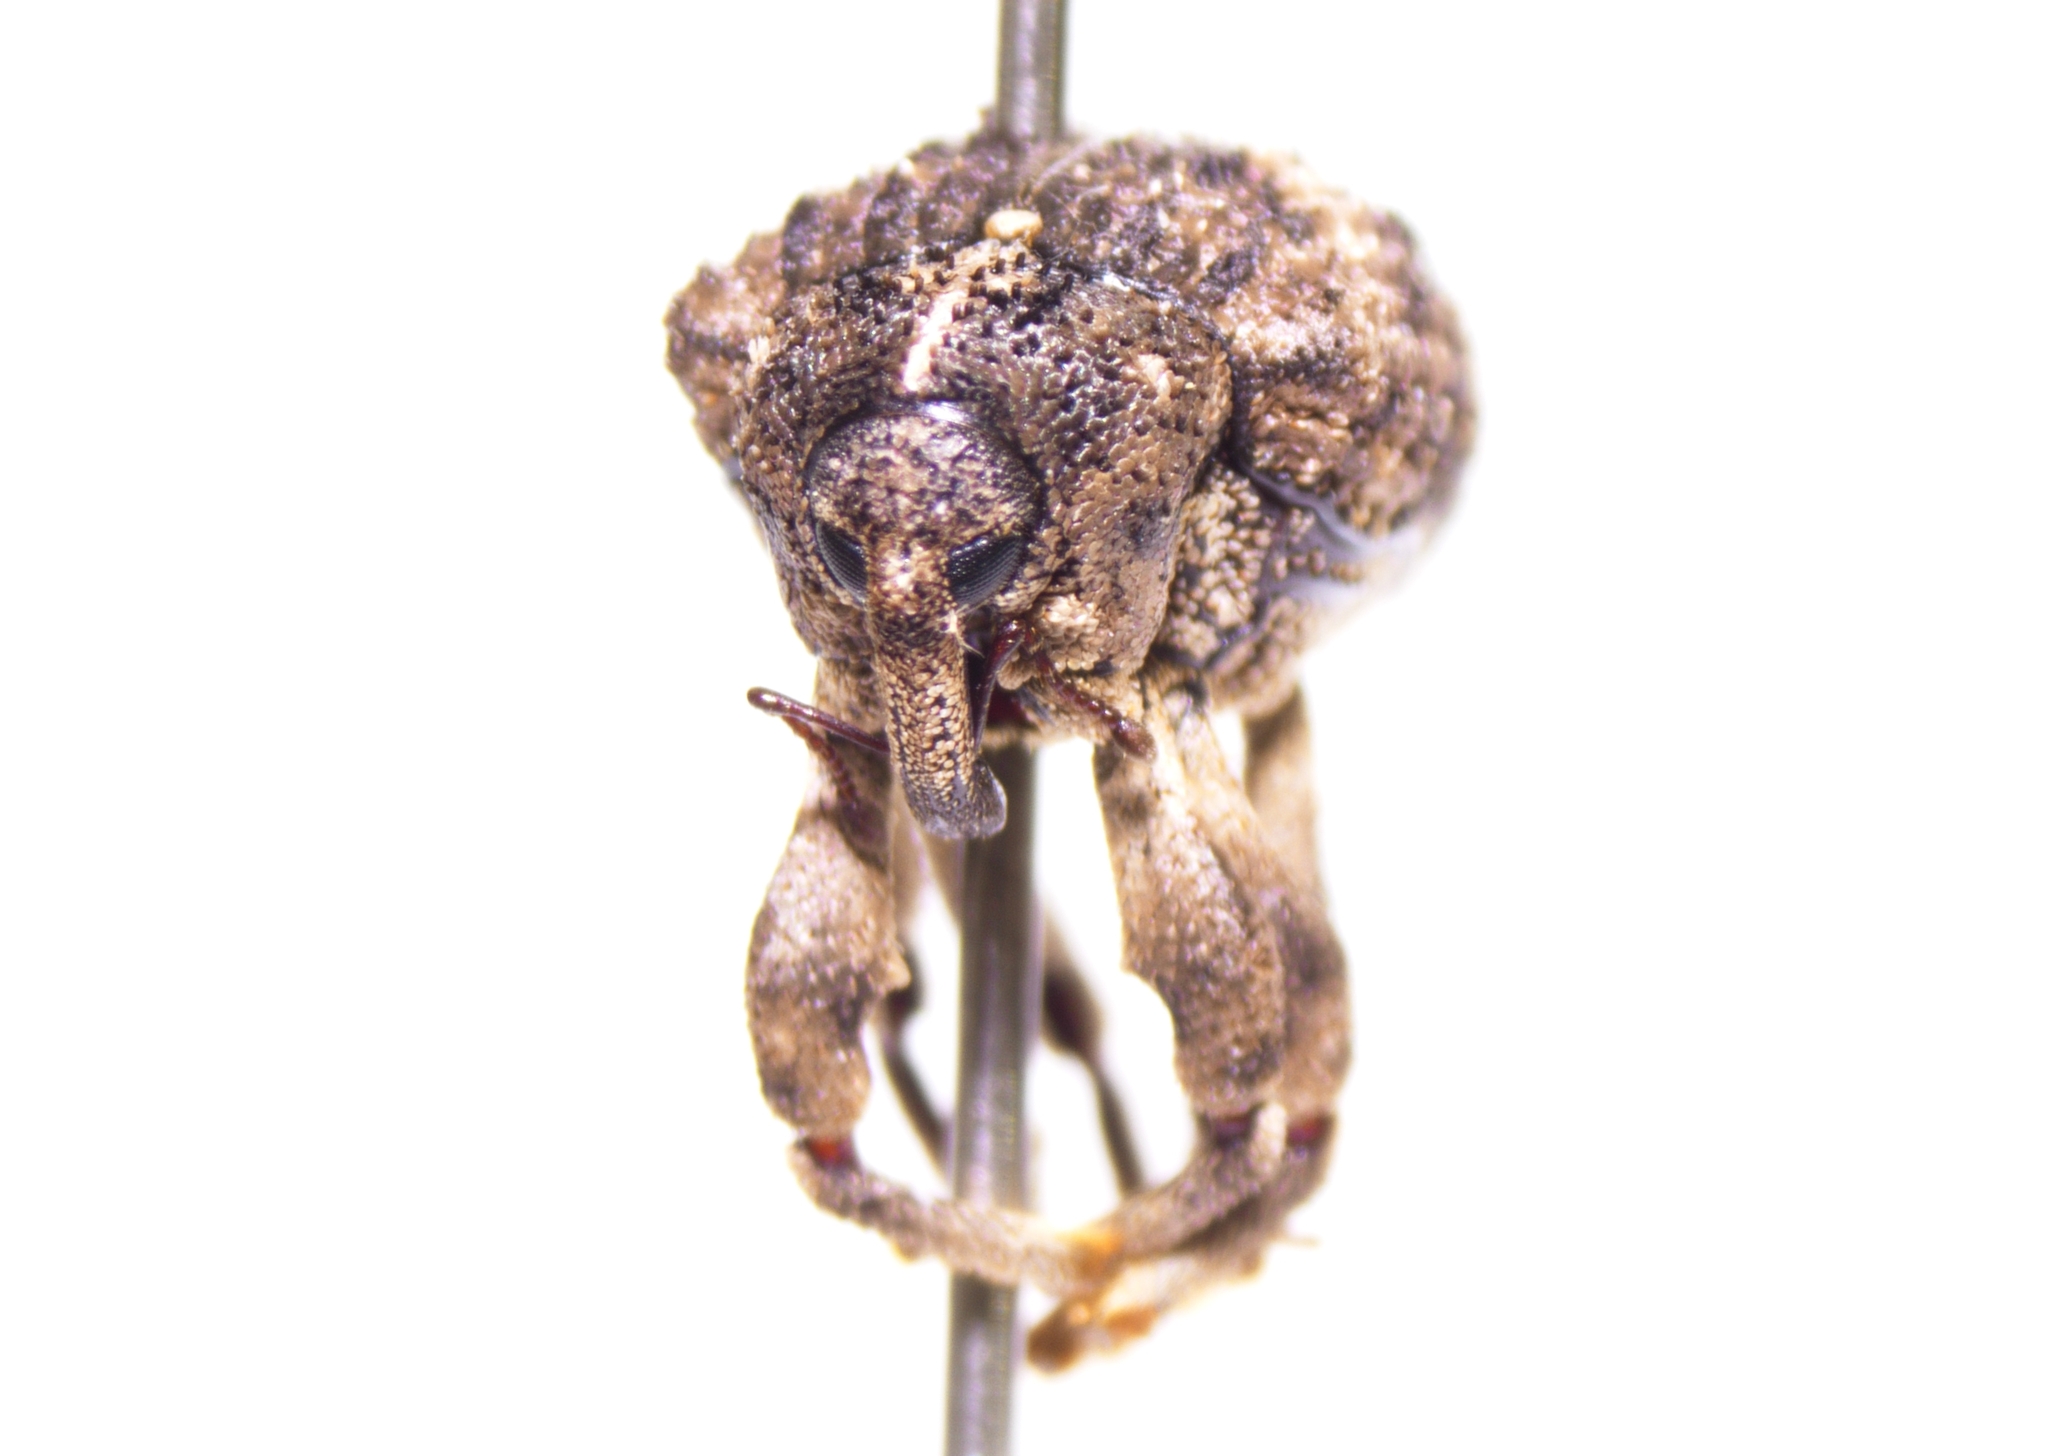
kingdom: Animalia
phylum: Arthropoda
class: Insecta
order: Coleoptera
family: Curculionidae
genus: Sternochetus
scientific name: Sternochetus mangiferae
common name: Mango seed weevil
